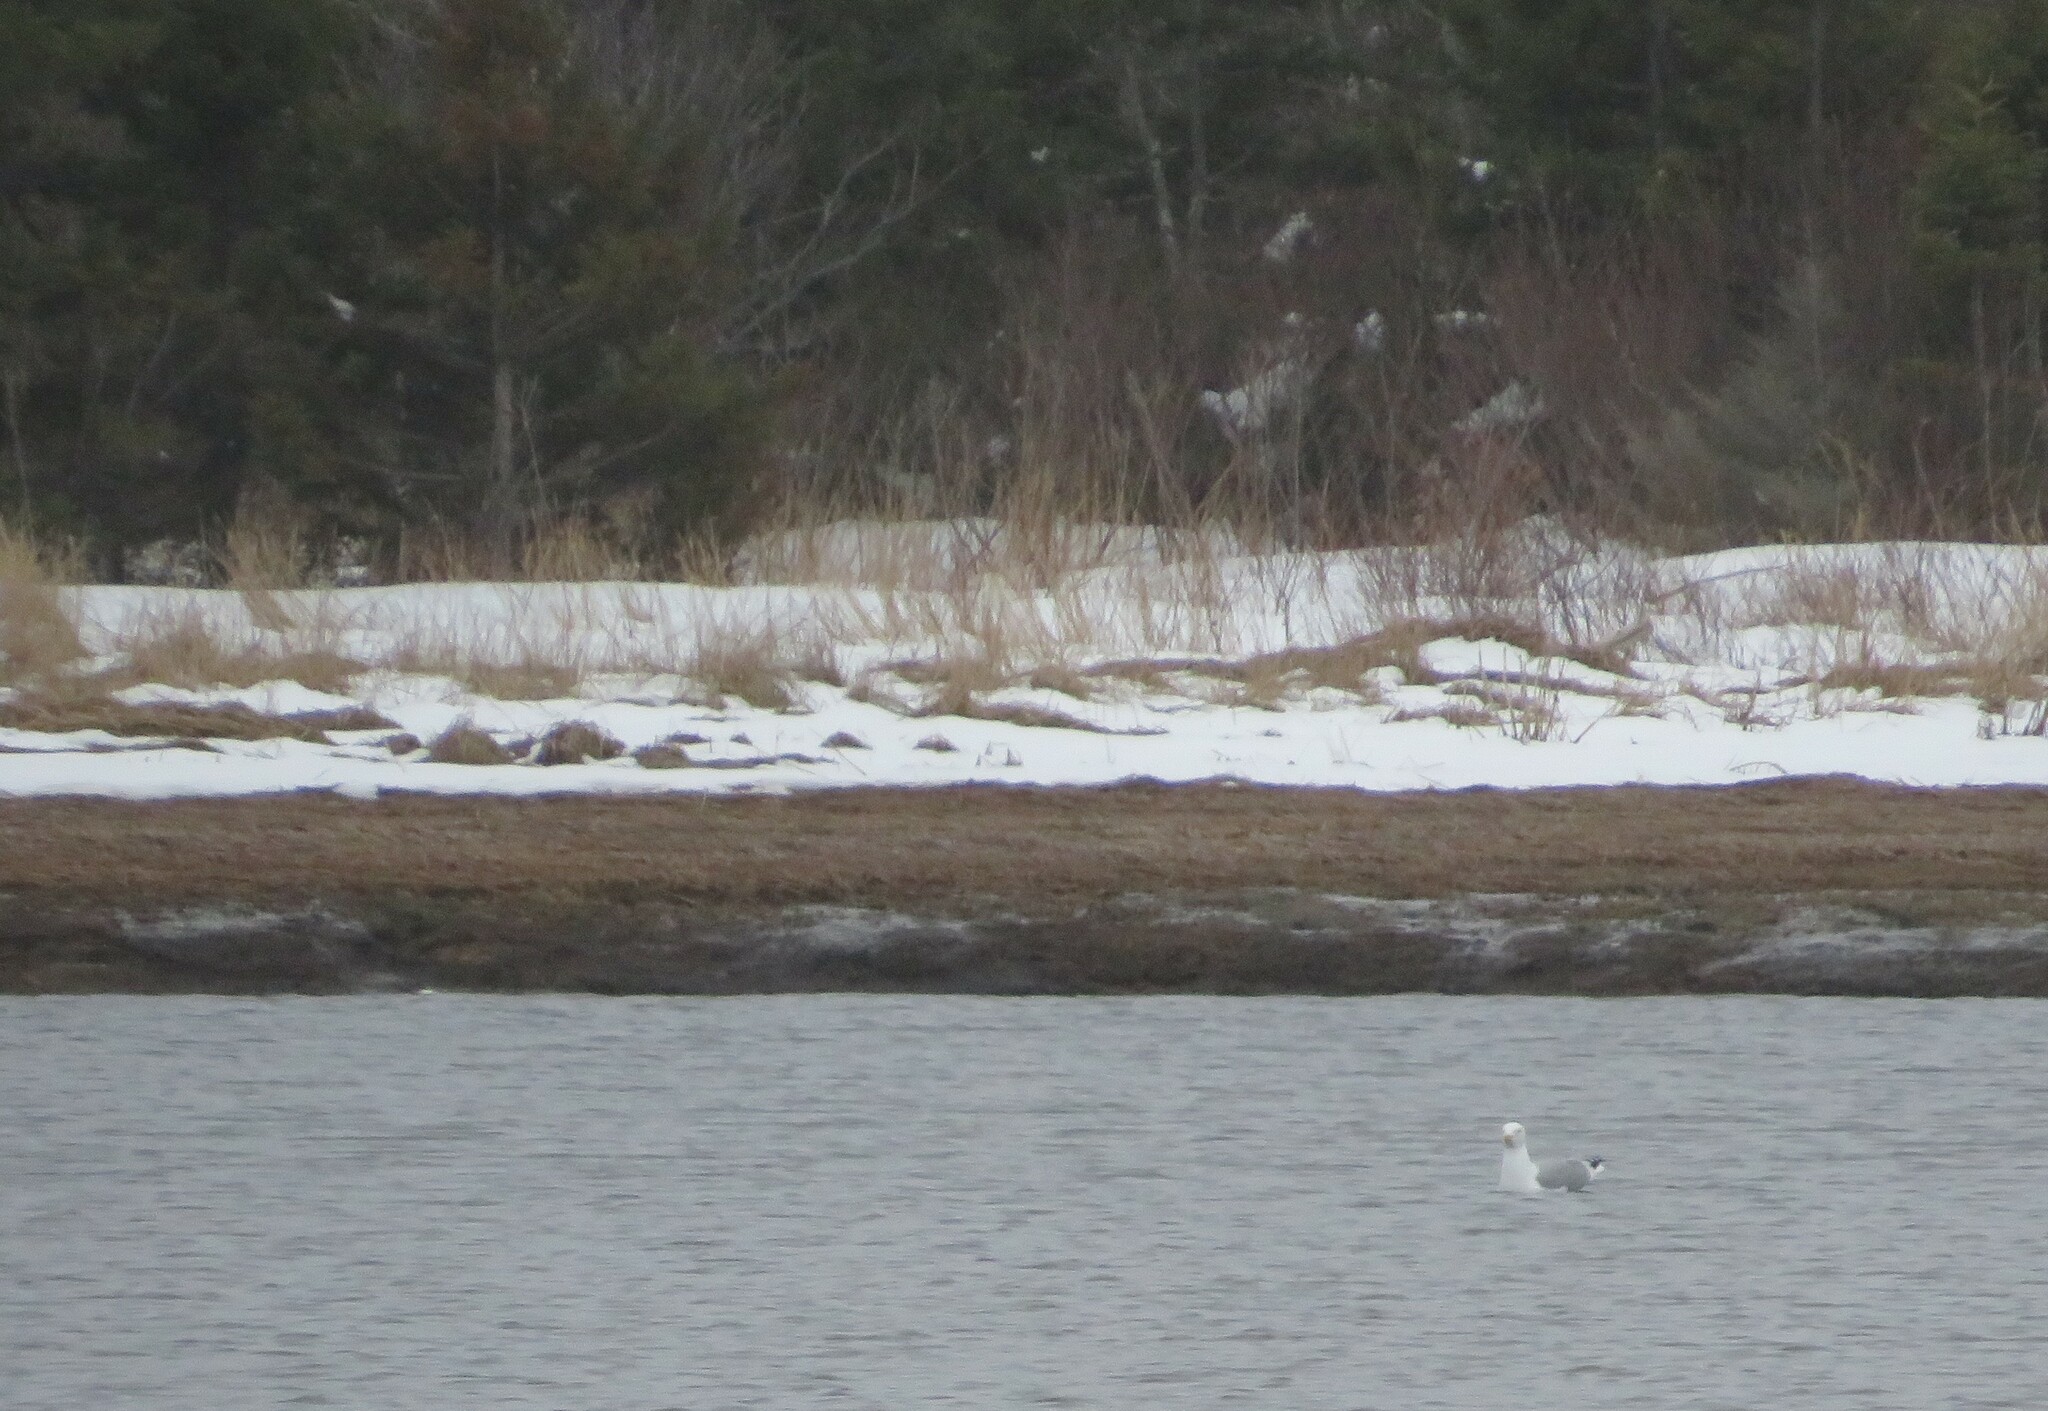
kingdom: Animalia
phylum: Chordata
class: Aves
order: Charadriiformes
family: Laridae
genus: Larus
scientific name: Larus argentatus
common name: Herring gull
